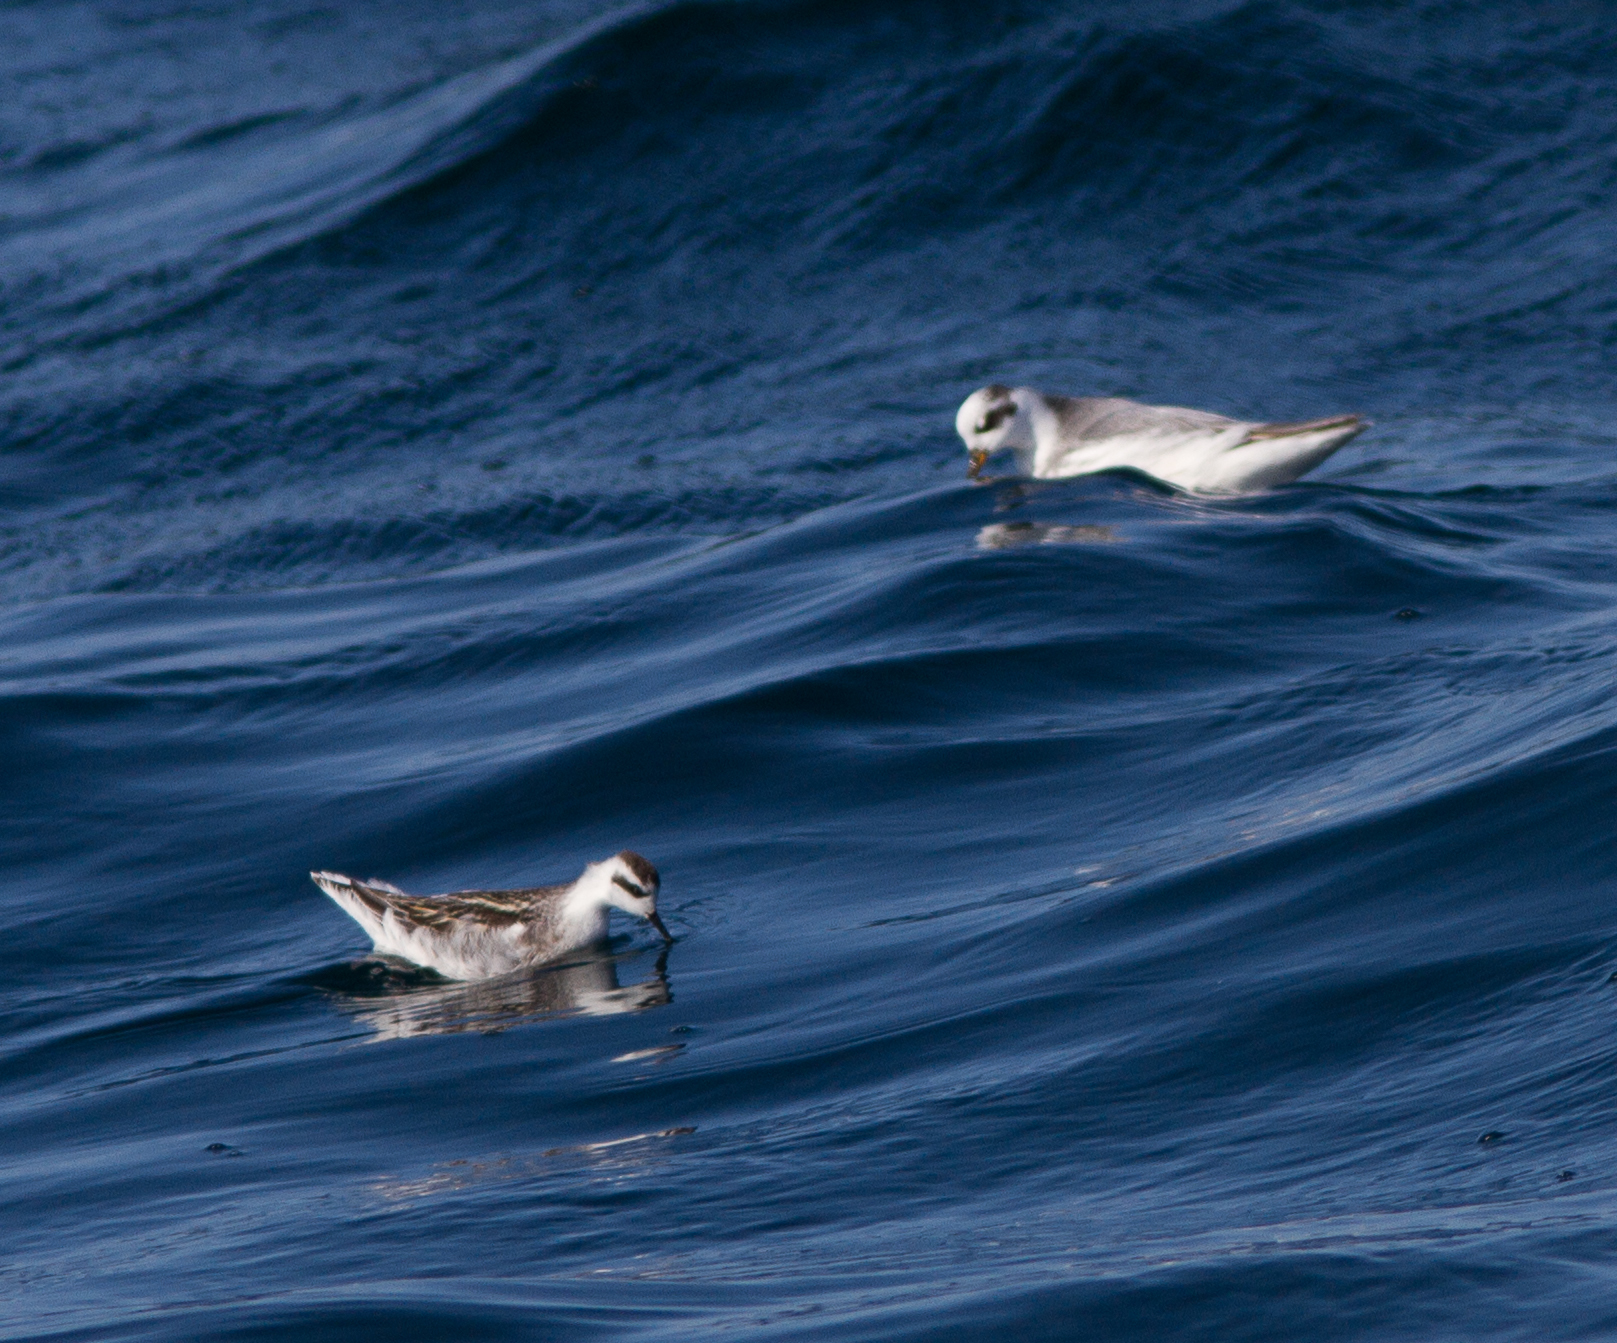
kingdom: Animalia
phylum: Chordata
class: Aves
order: Charadriiformes
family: Scolopacidae
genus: Phalaropus
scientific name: Phalaropus lobatus
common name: Red-necked phalarope
